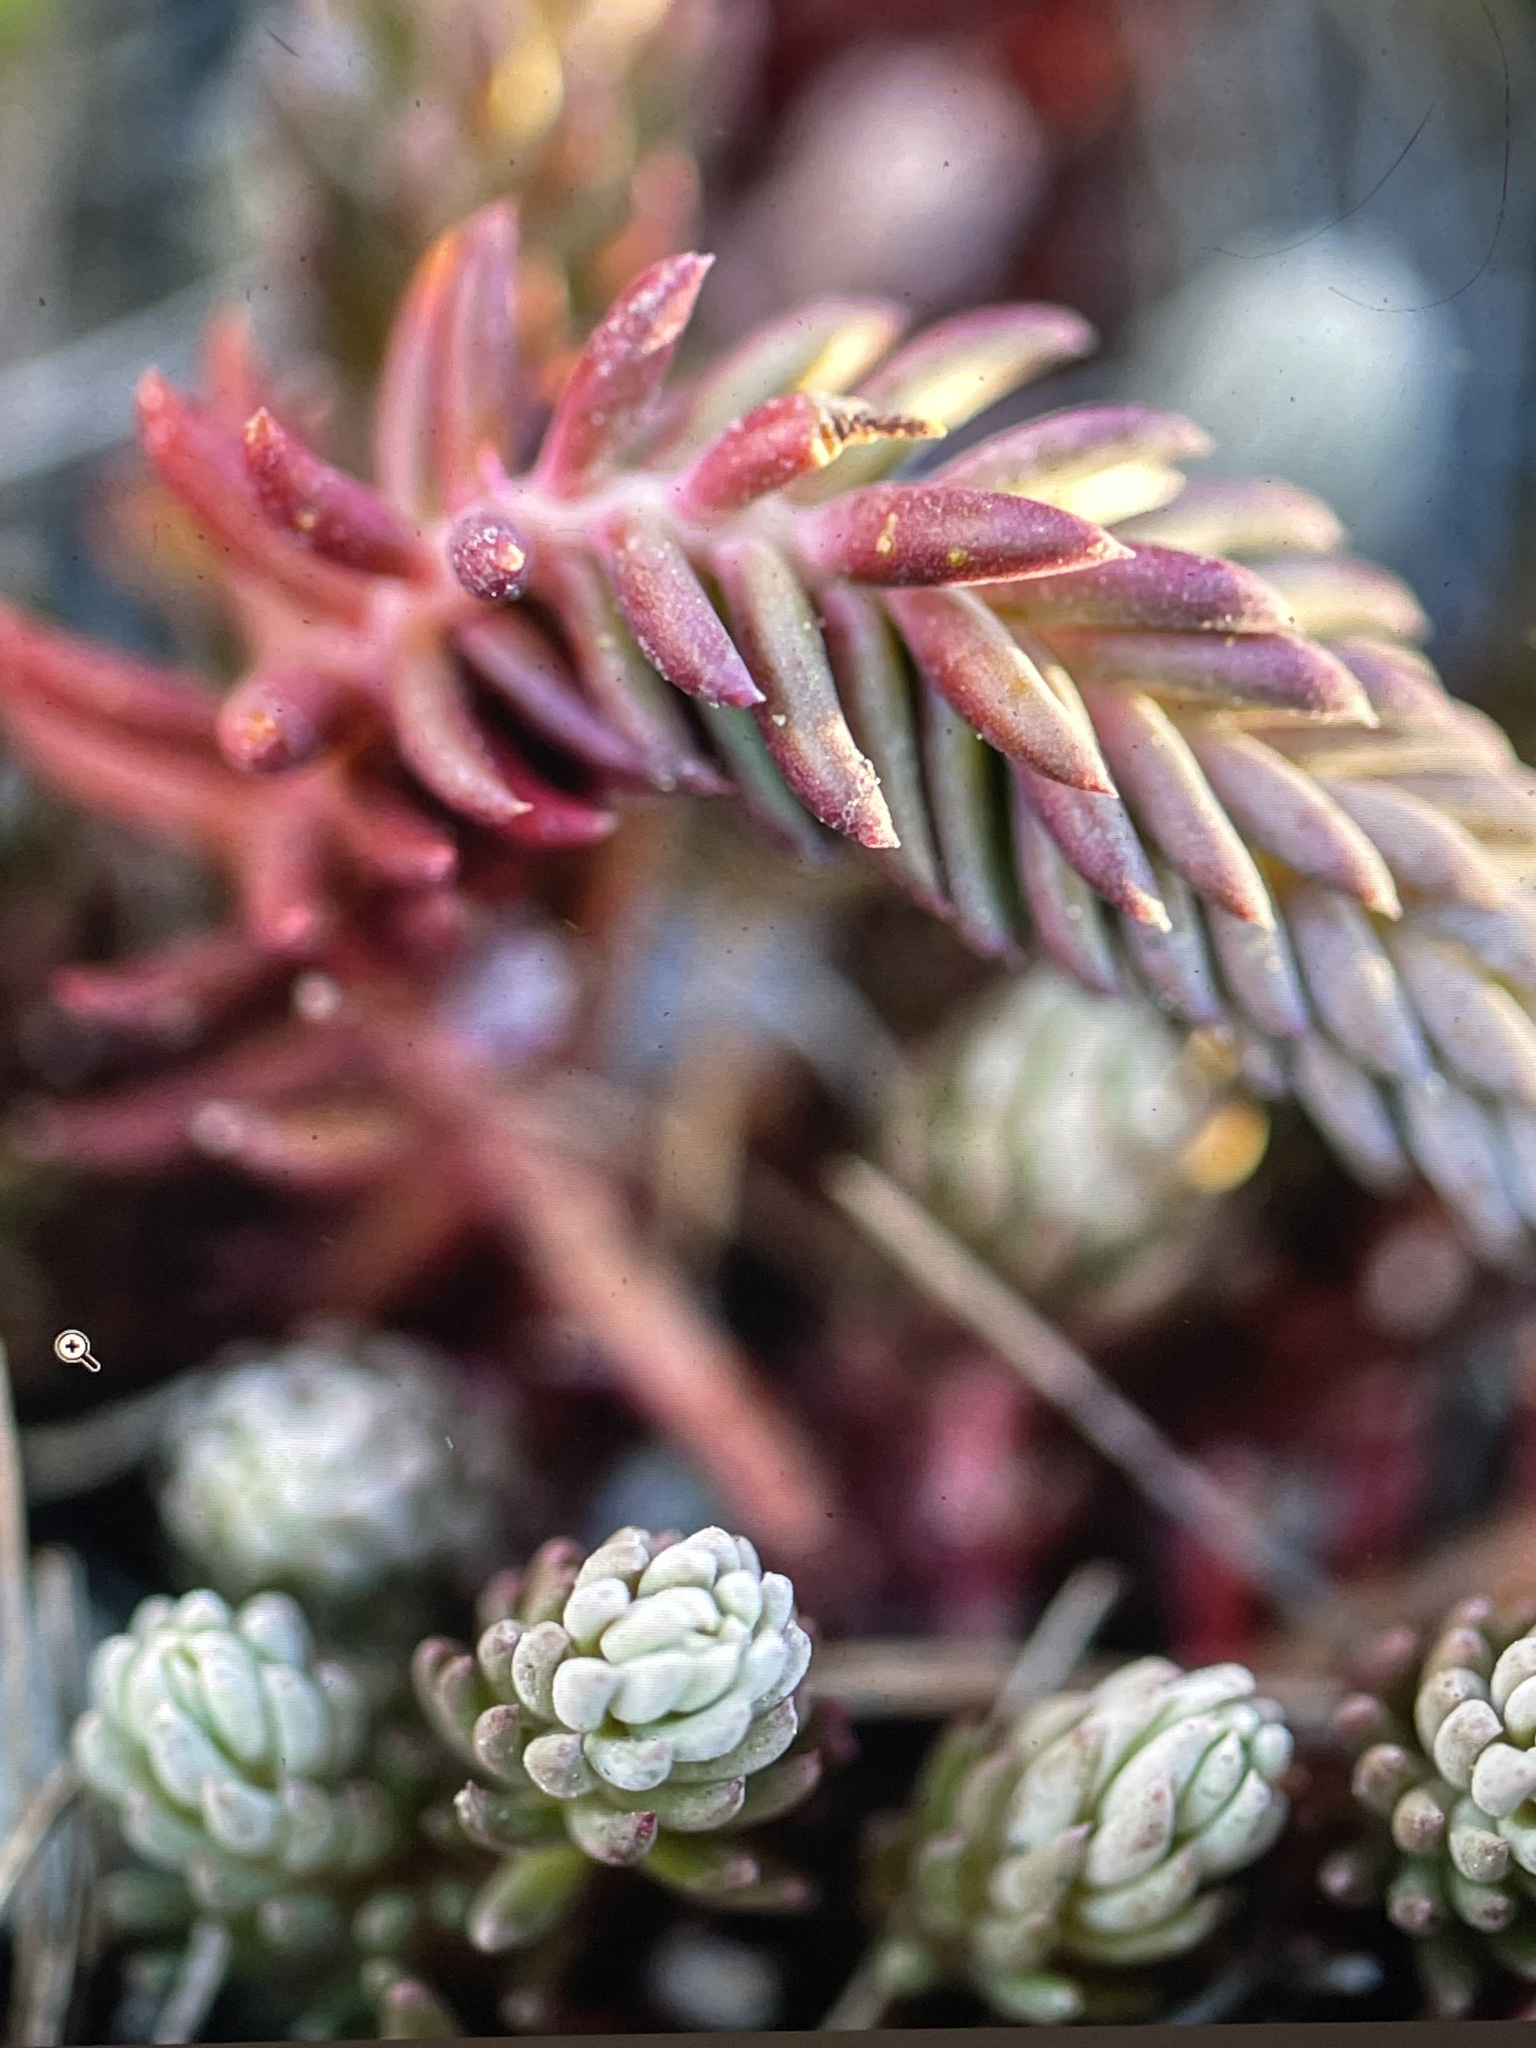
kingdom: Plantae
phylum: Tracheophyta
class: Magnoliopsida
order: Saxifragales
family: Crassulaceae
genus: Petrosedum
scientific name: Petrosedum ochroleucum
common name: European stonecrop
